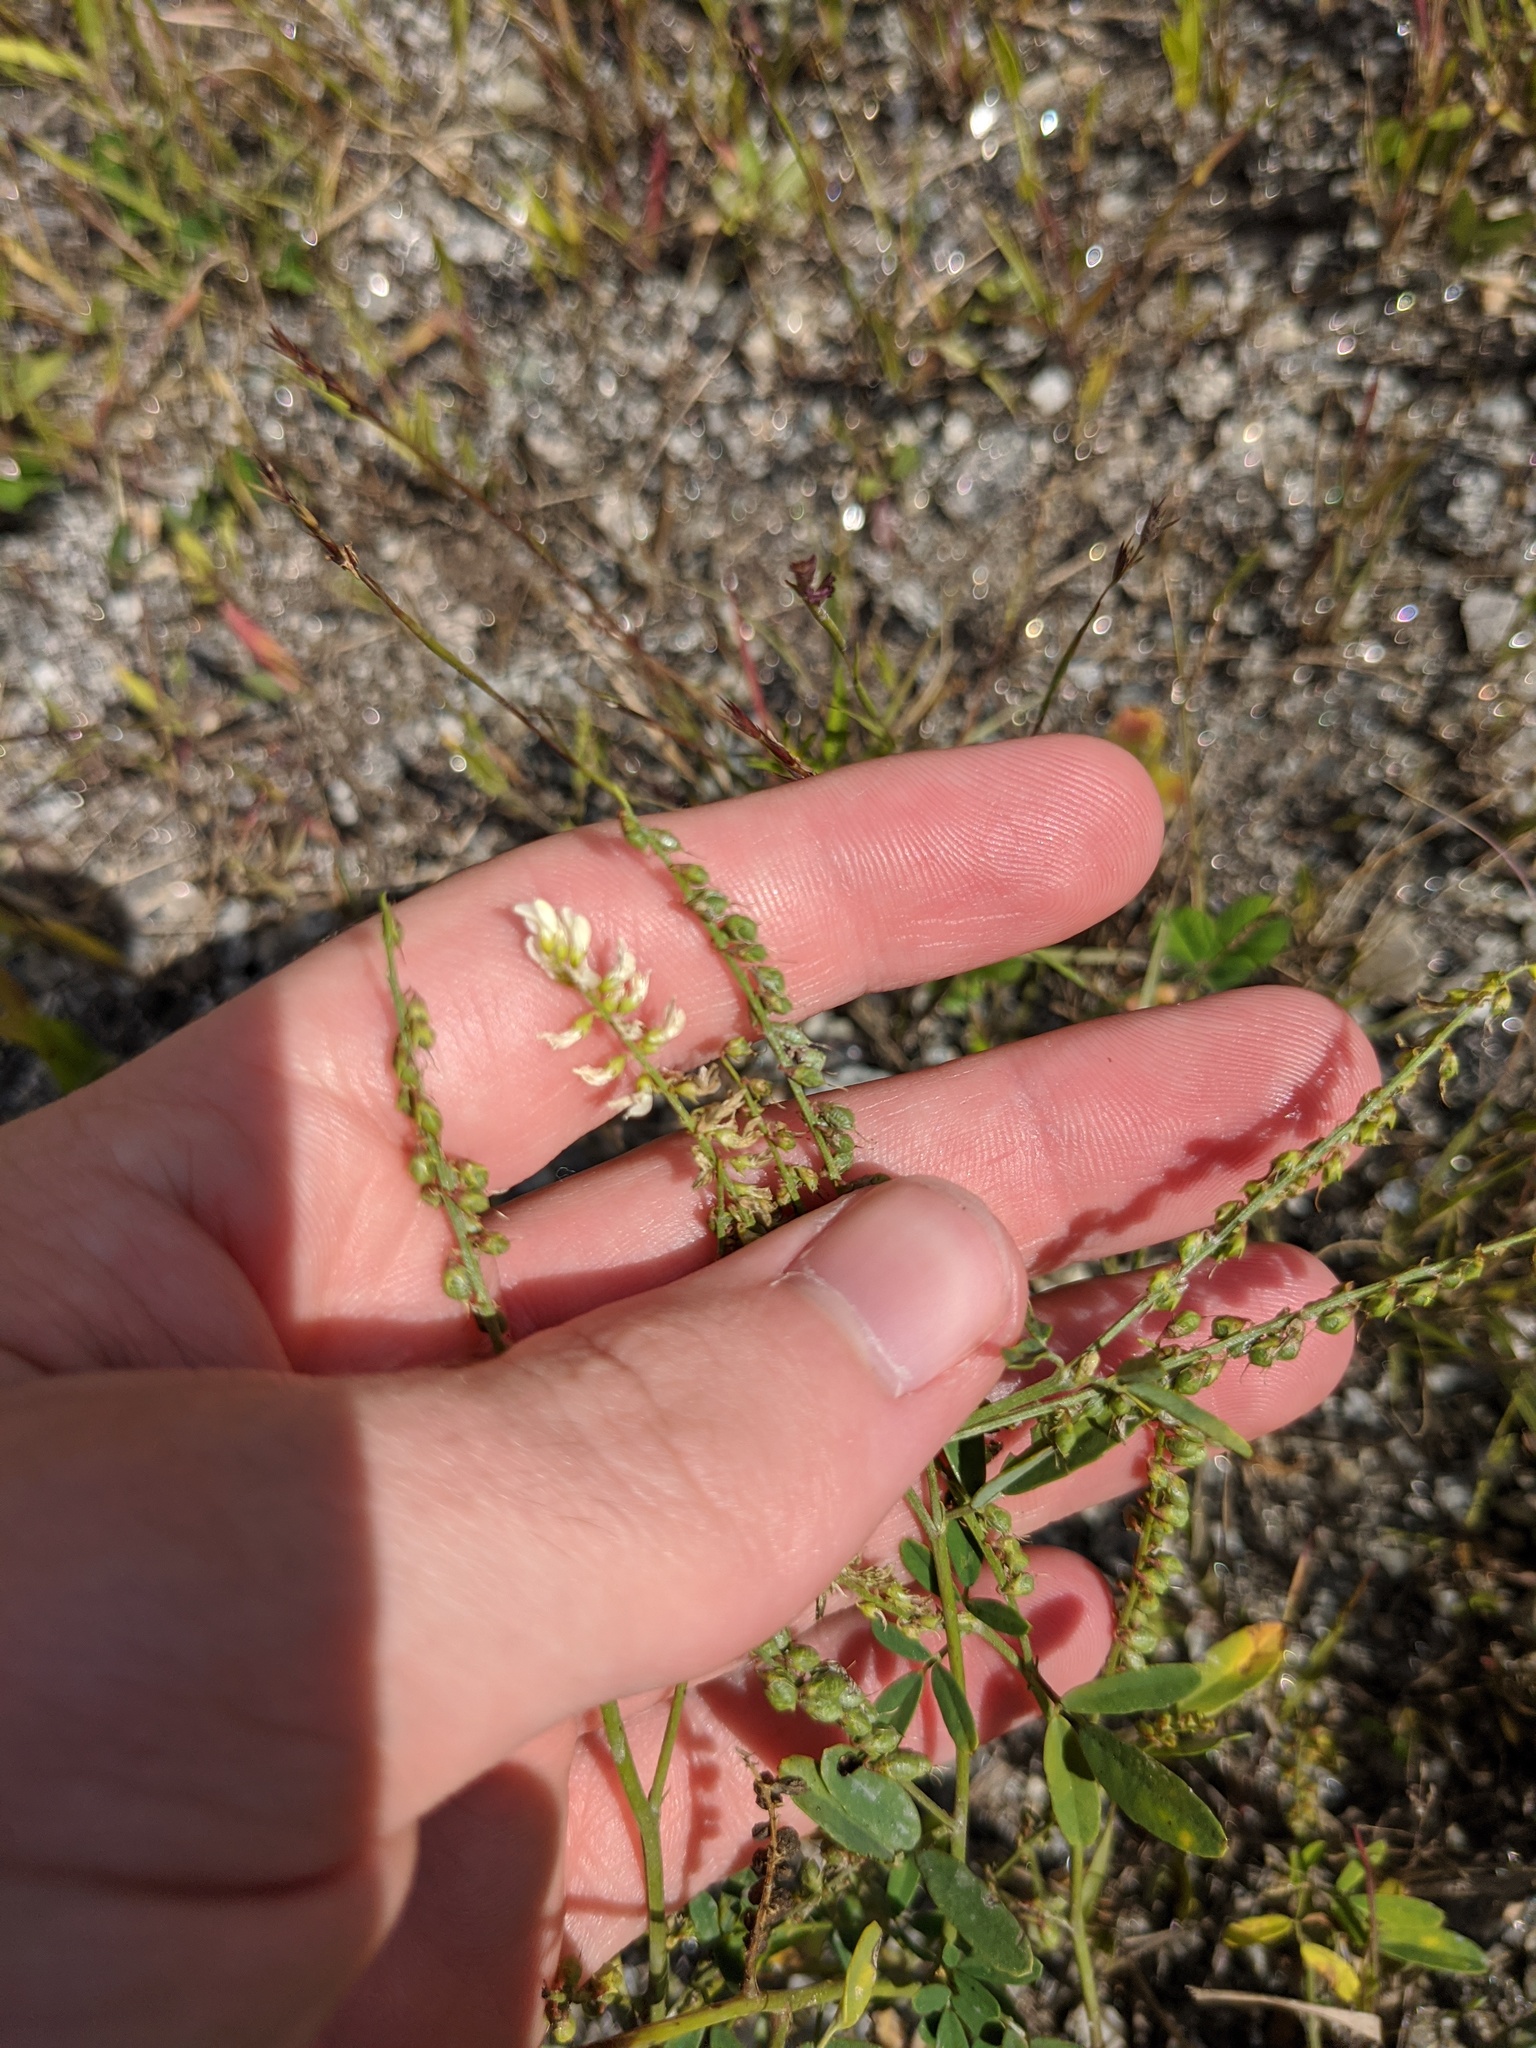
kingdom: Plantae
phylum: Tracheophyta
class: Magnoliopsida
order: Fabales
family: Fabaceae
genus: Melilotus
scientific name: Melilotus albus
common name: White melilot
